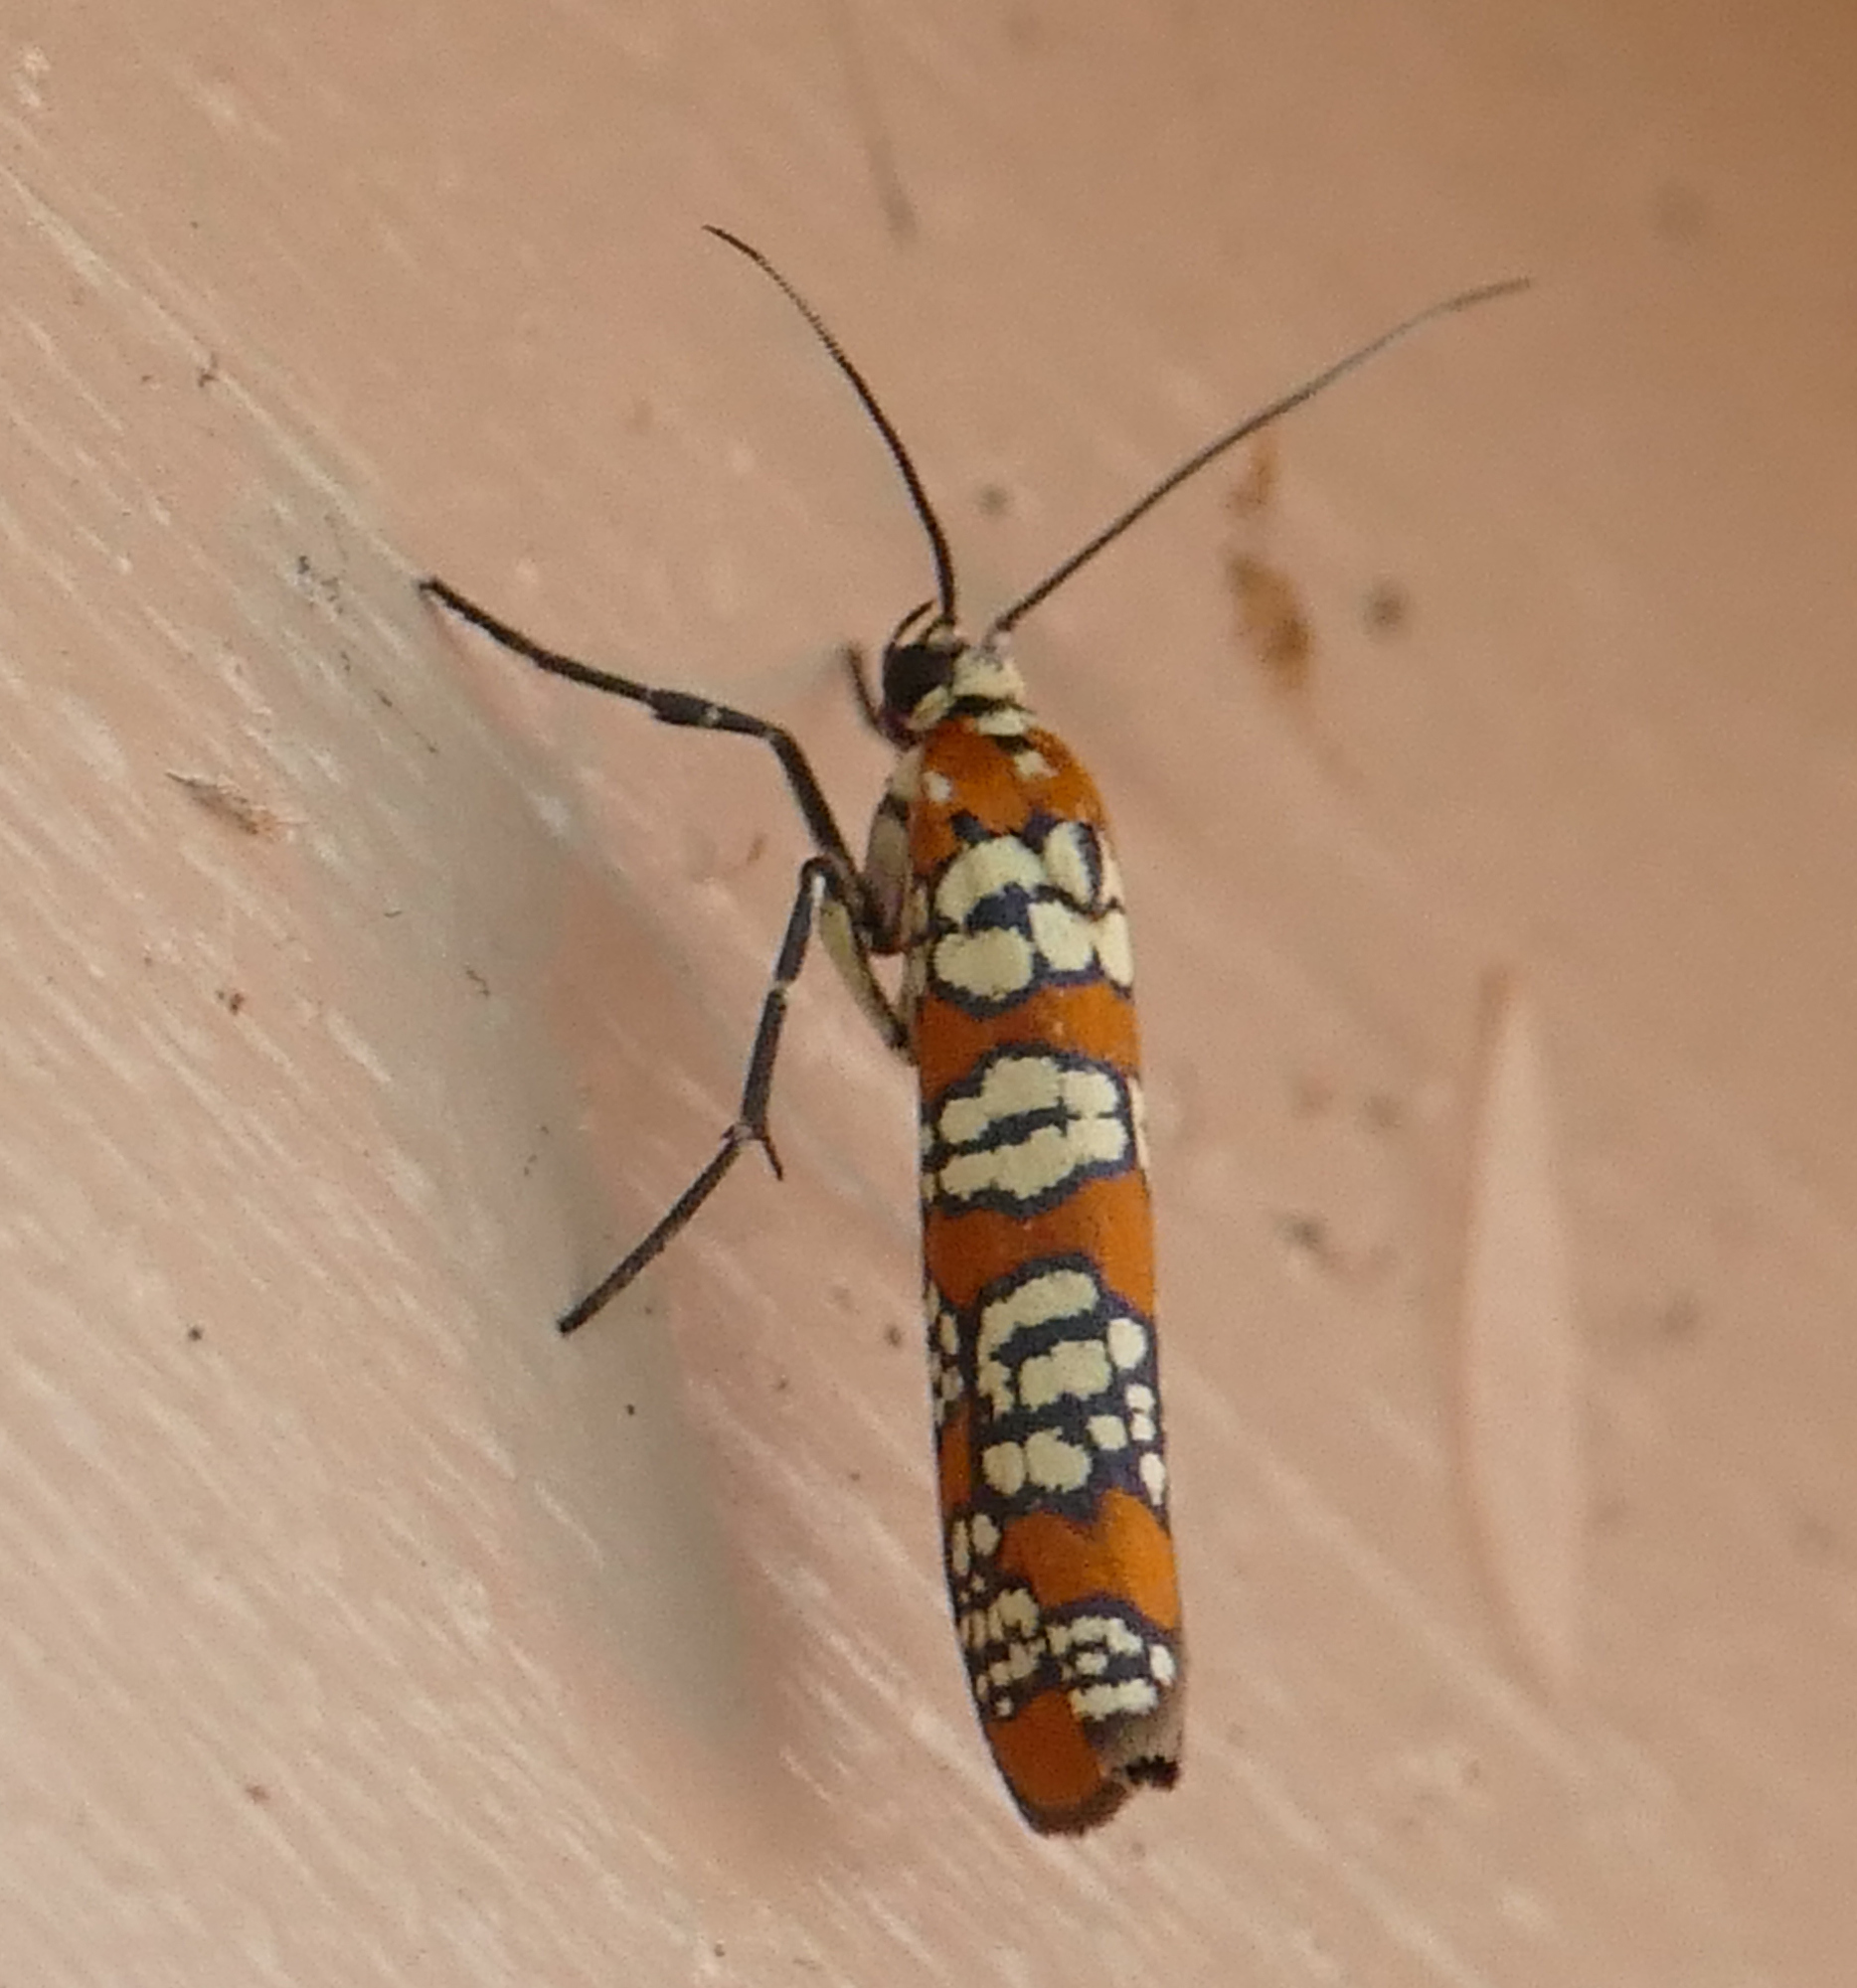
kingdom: Animalia
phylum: Arthropoda
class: Insecta
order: Lepidoptera
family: Attevidae
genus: Atteva
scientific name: Atteva punctella
